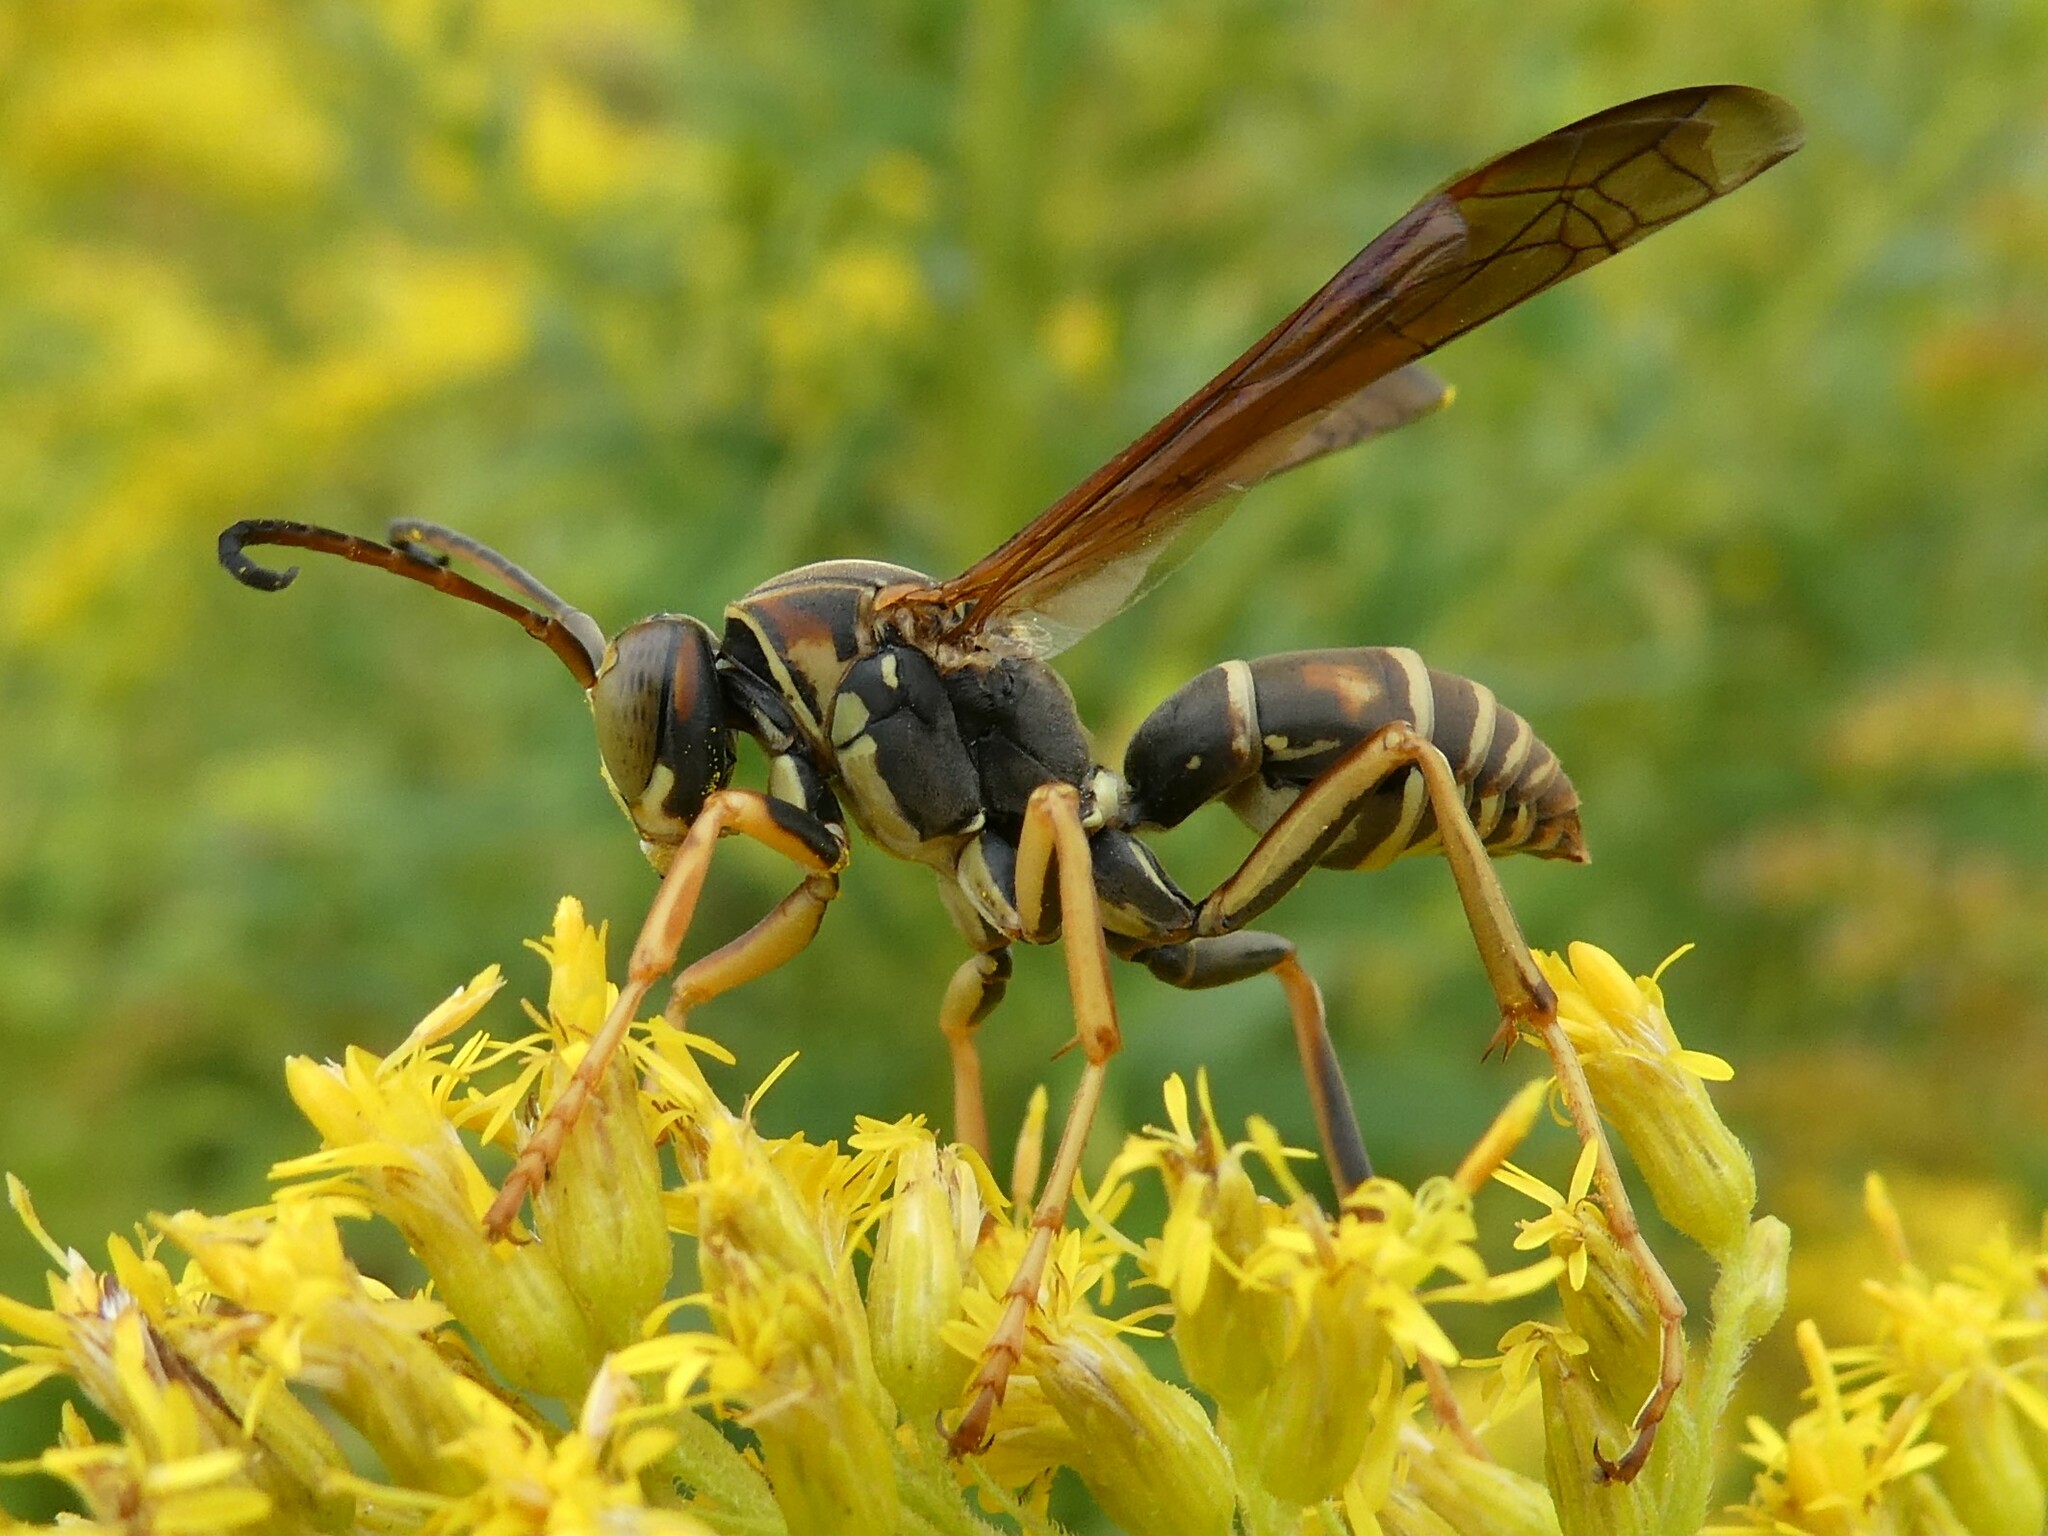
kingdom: Animalia
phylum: Arthropoda
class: Insecta
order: Hymenoptera
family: Eumenidae
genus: Polistes
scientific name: Polistes fuscatus
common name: Dark paper wasp
